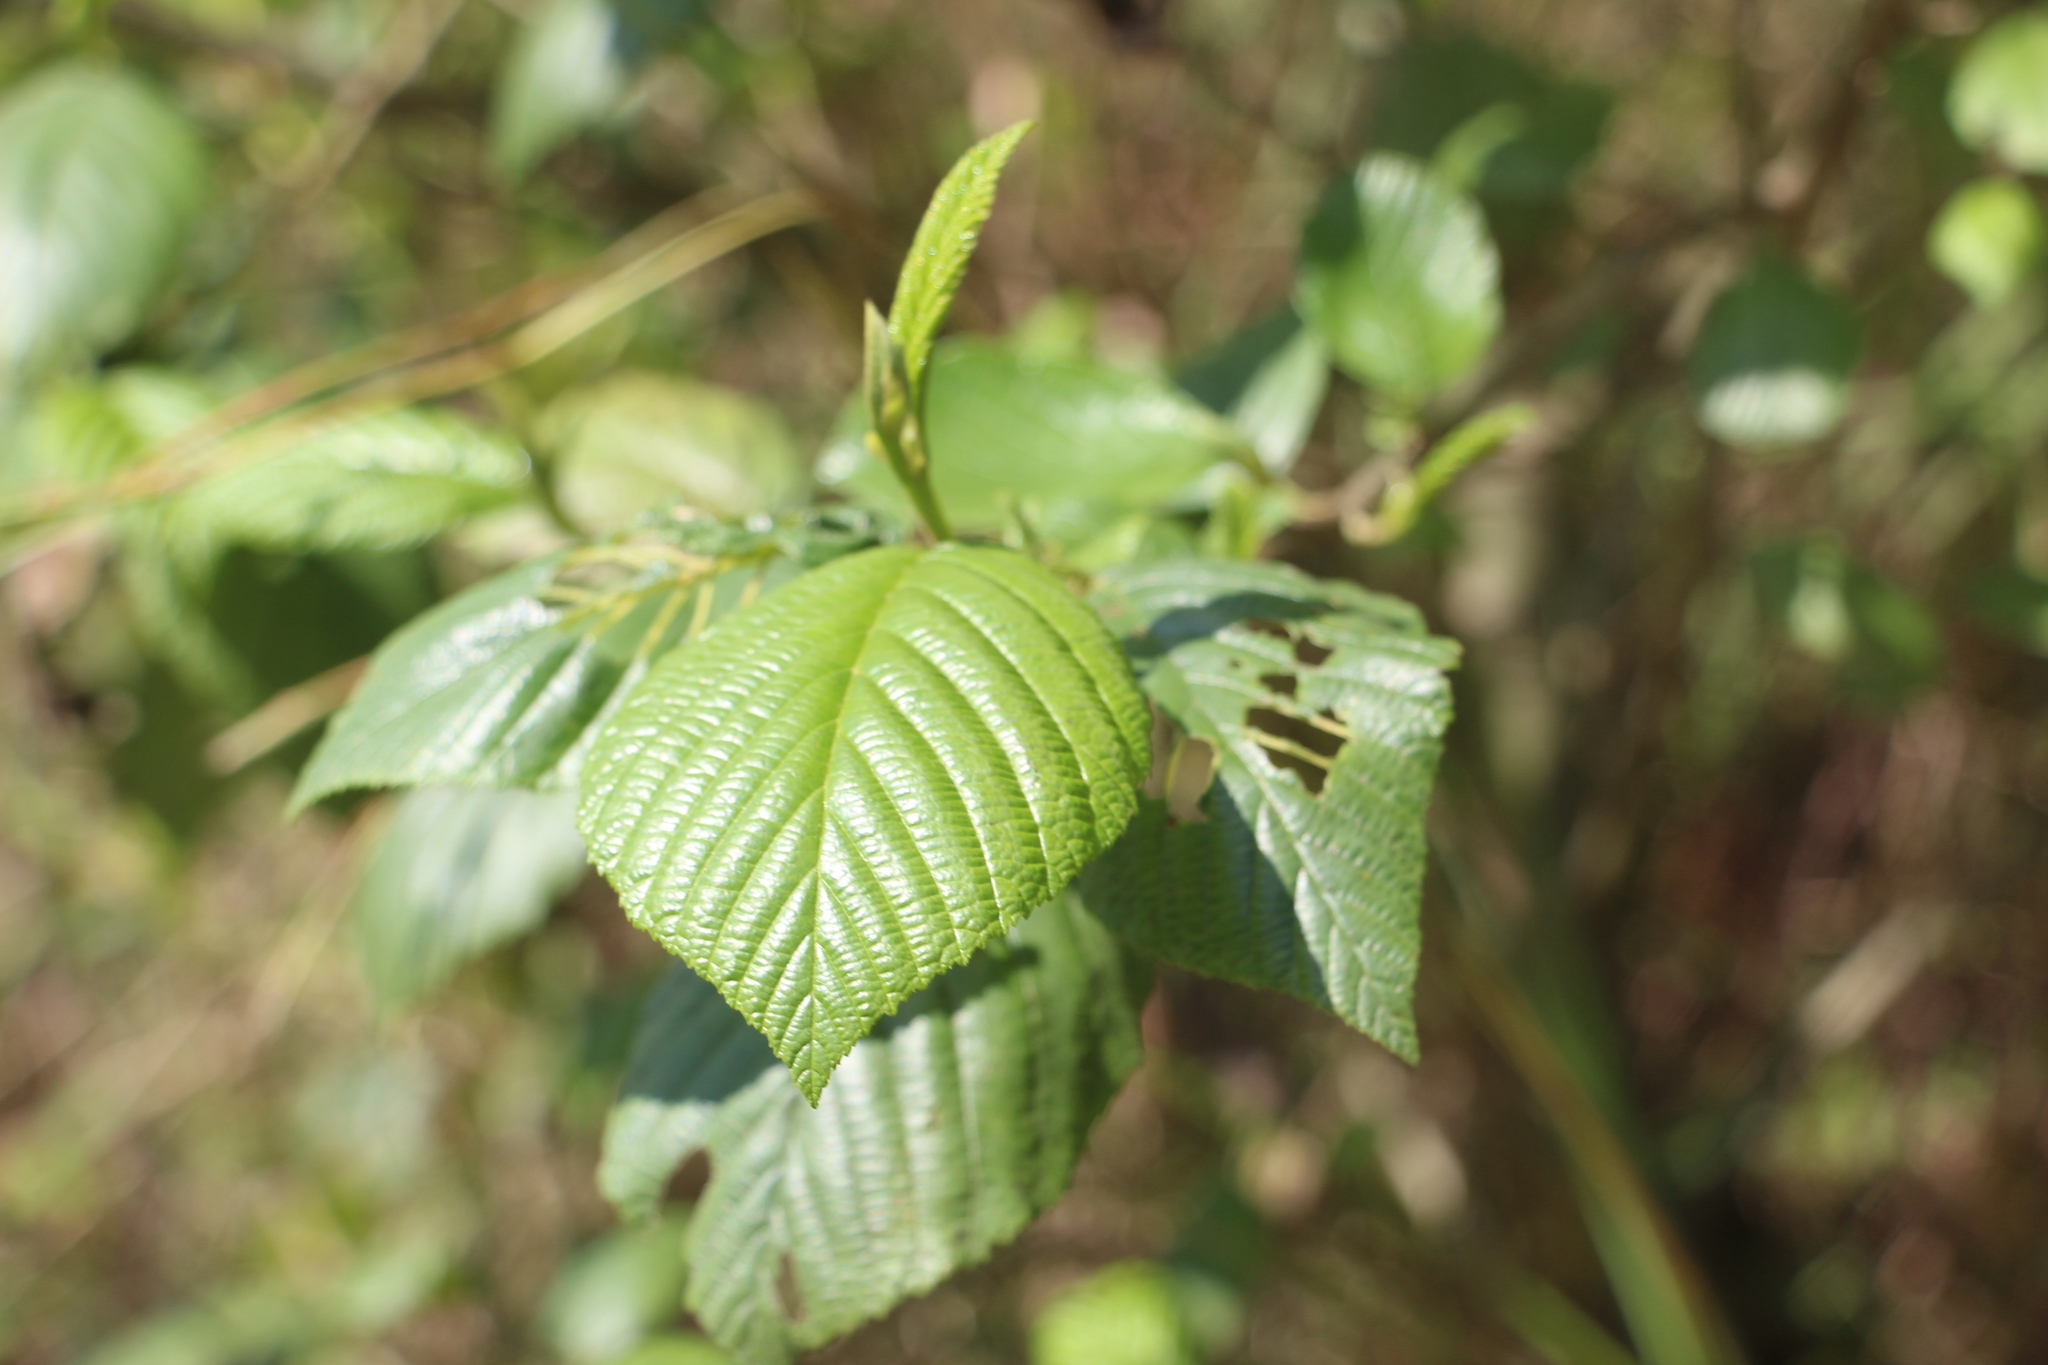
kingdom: Plantae
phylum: Tracheophyta
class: Magnoliopsida
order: Fagales
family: Betulaceae
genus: Alnus
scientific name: Alnus acuminata
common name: Alder
